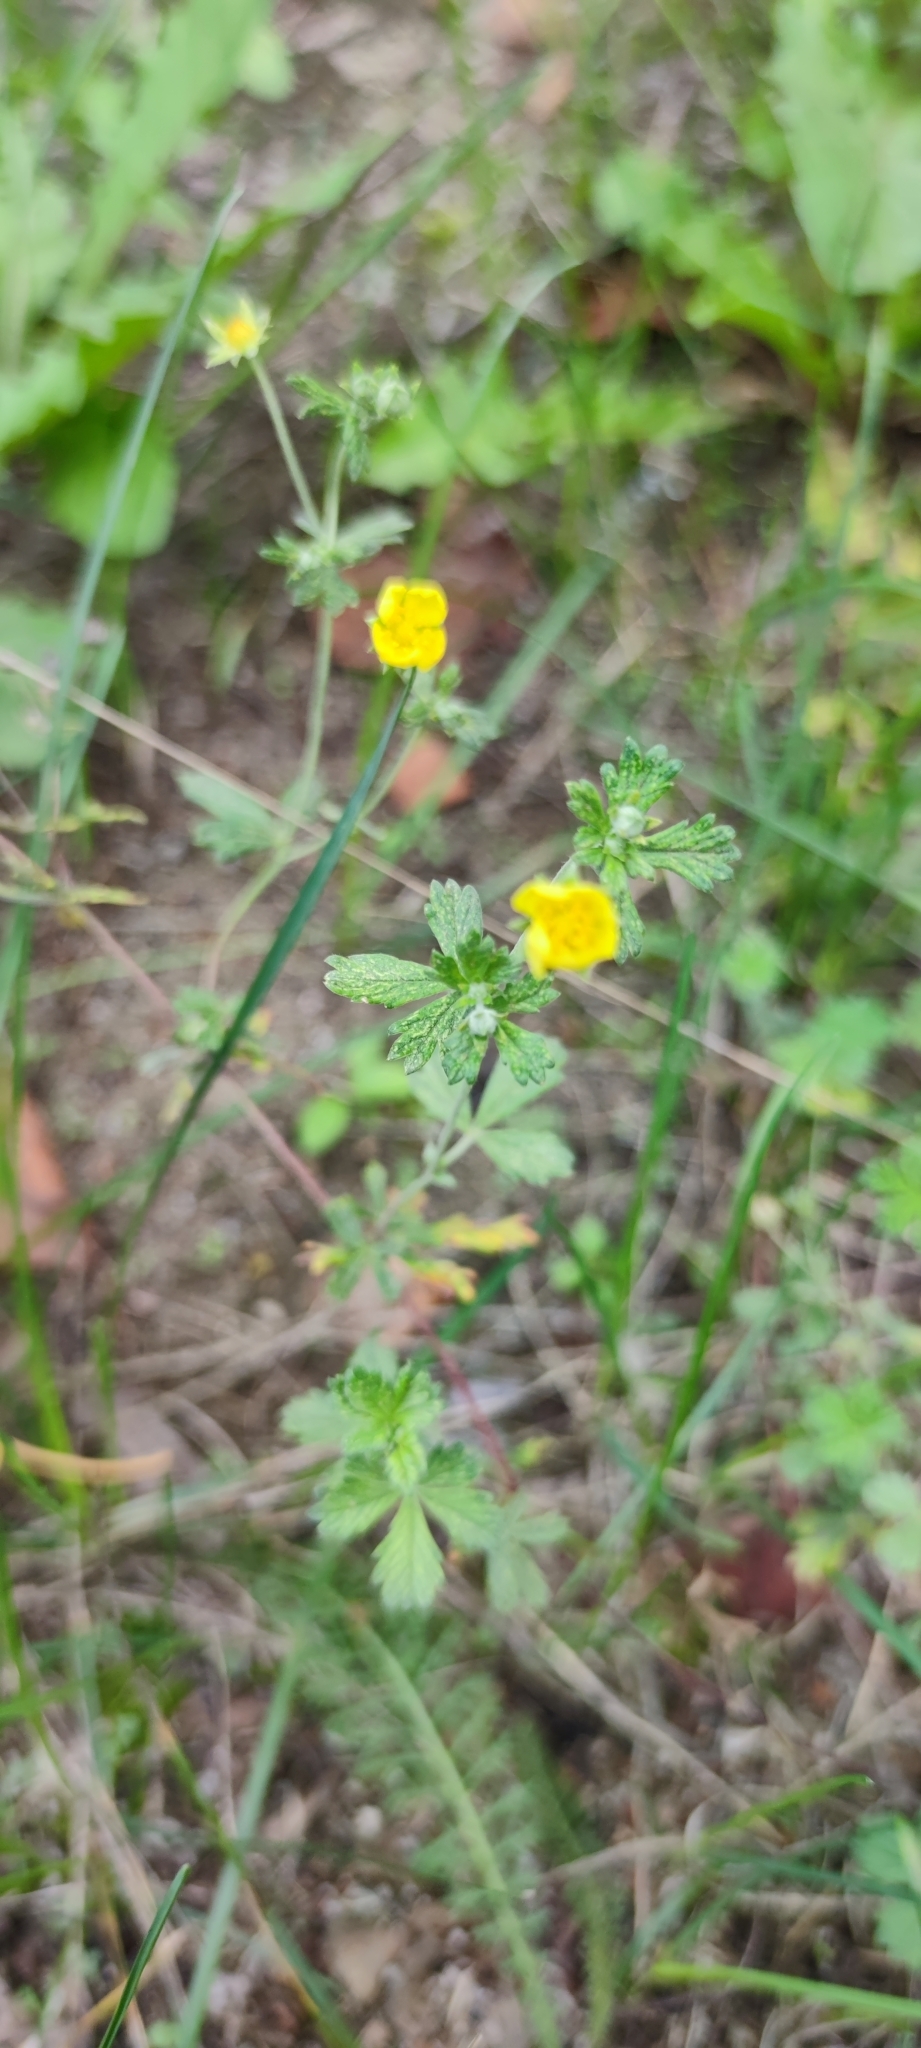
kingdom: Plantae
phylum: Tracheophyta
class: Magnoliopsida
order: Rosales
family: Rosaceae
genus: Potentilla
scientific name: Potentilla argentea
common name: Hoary cinquefoil
